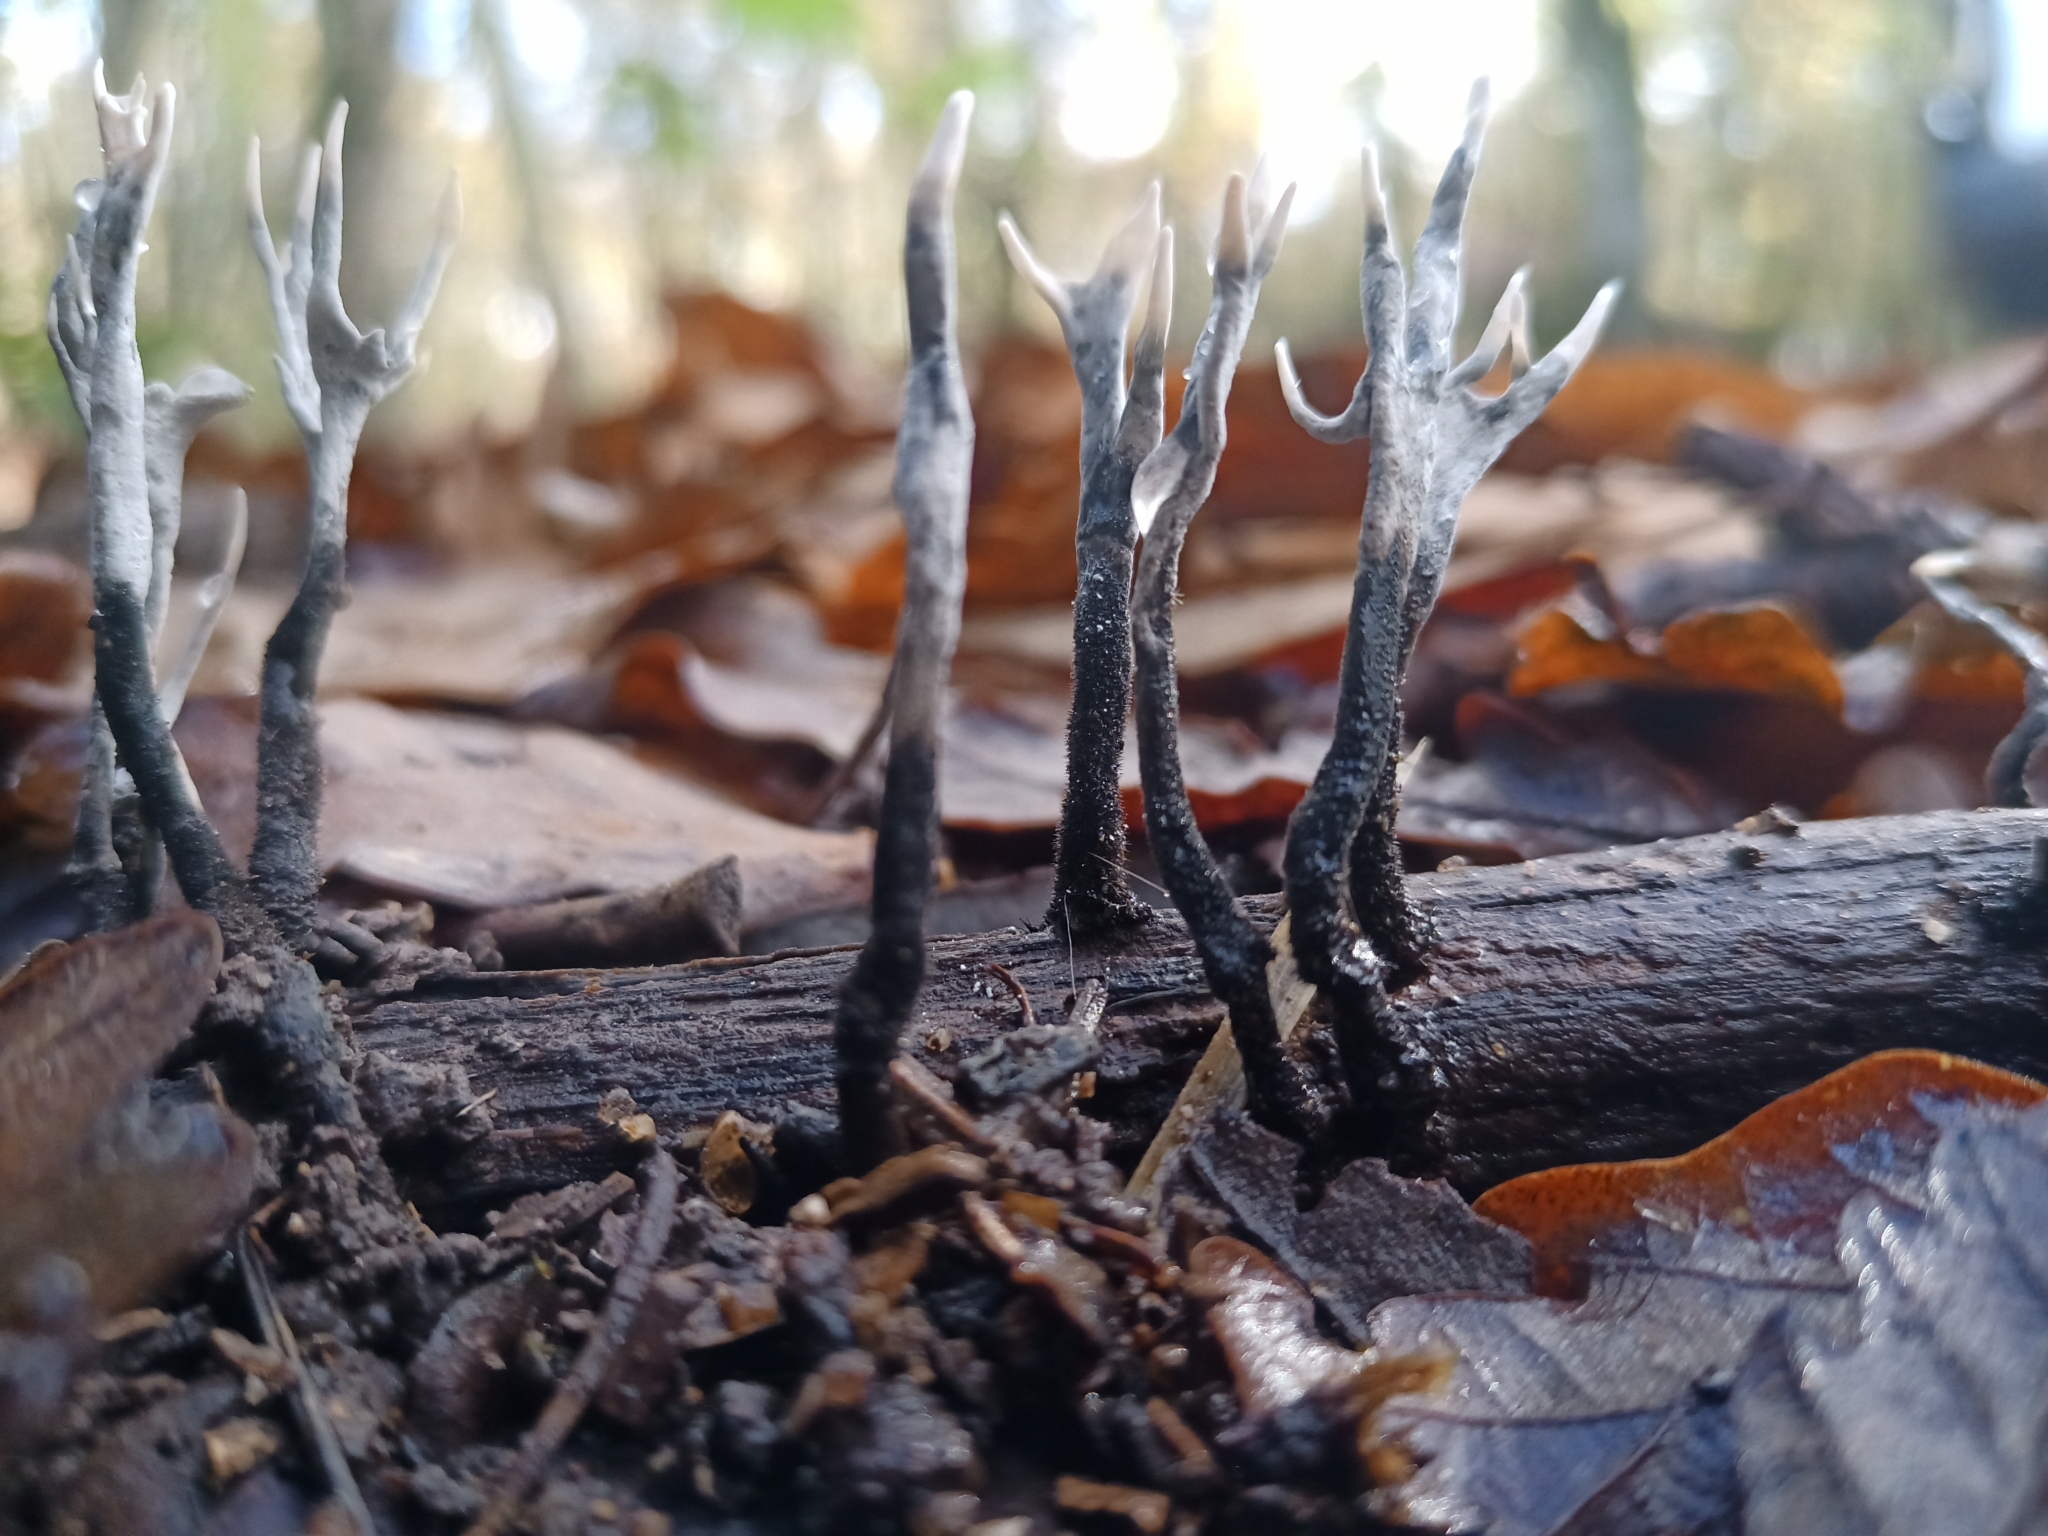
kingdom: Fungi
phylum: Ascomycota
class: Sordariomycetes
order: Xylariales
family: Xylariaceae
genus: Xylaria
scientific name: Xylaria hypoxylon
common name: Candle-snuff fungus
